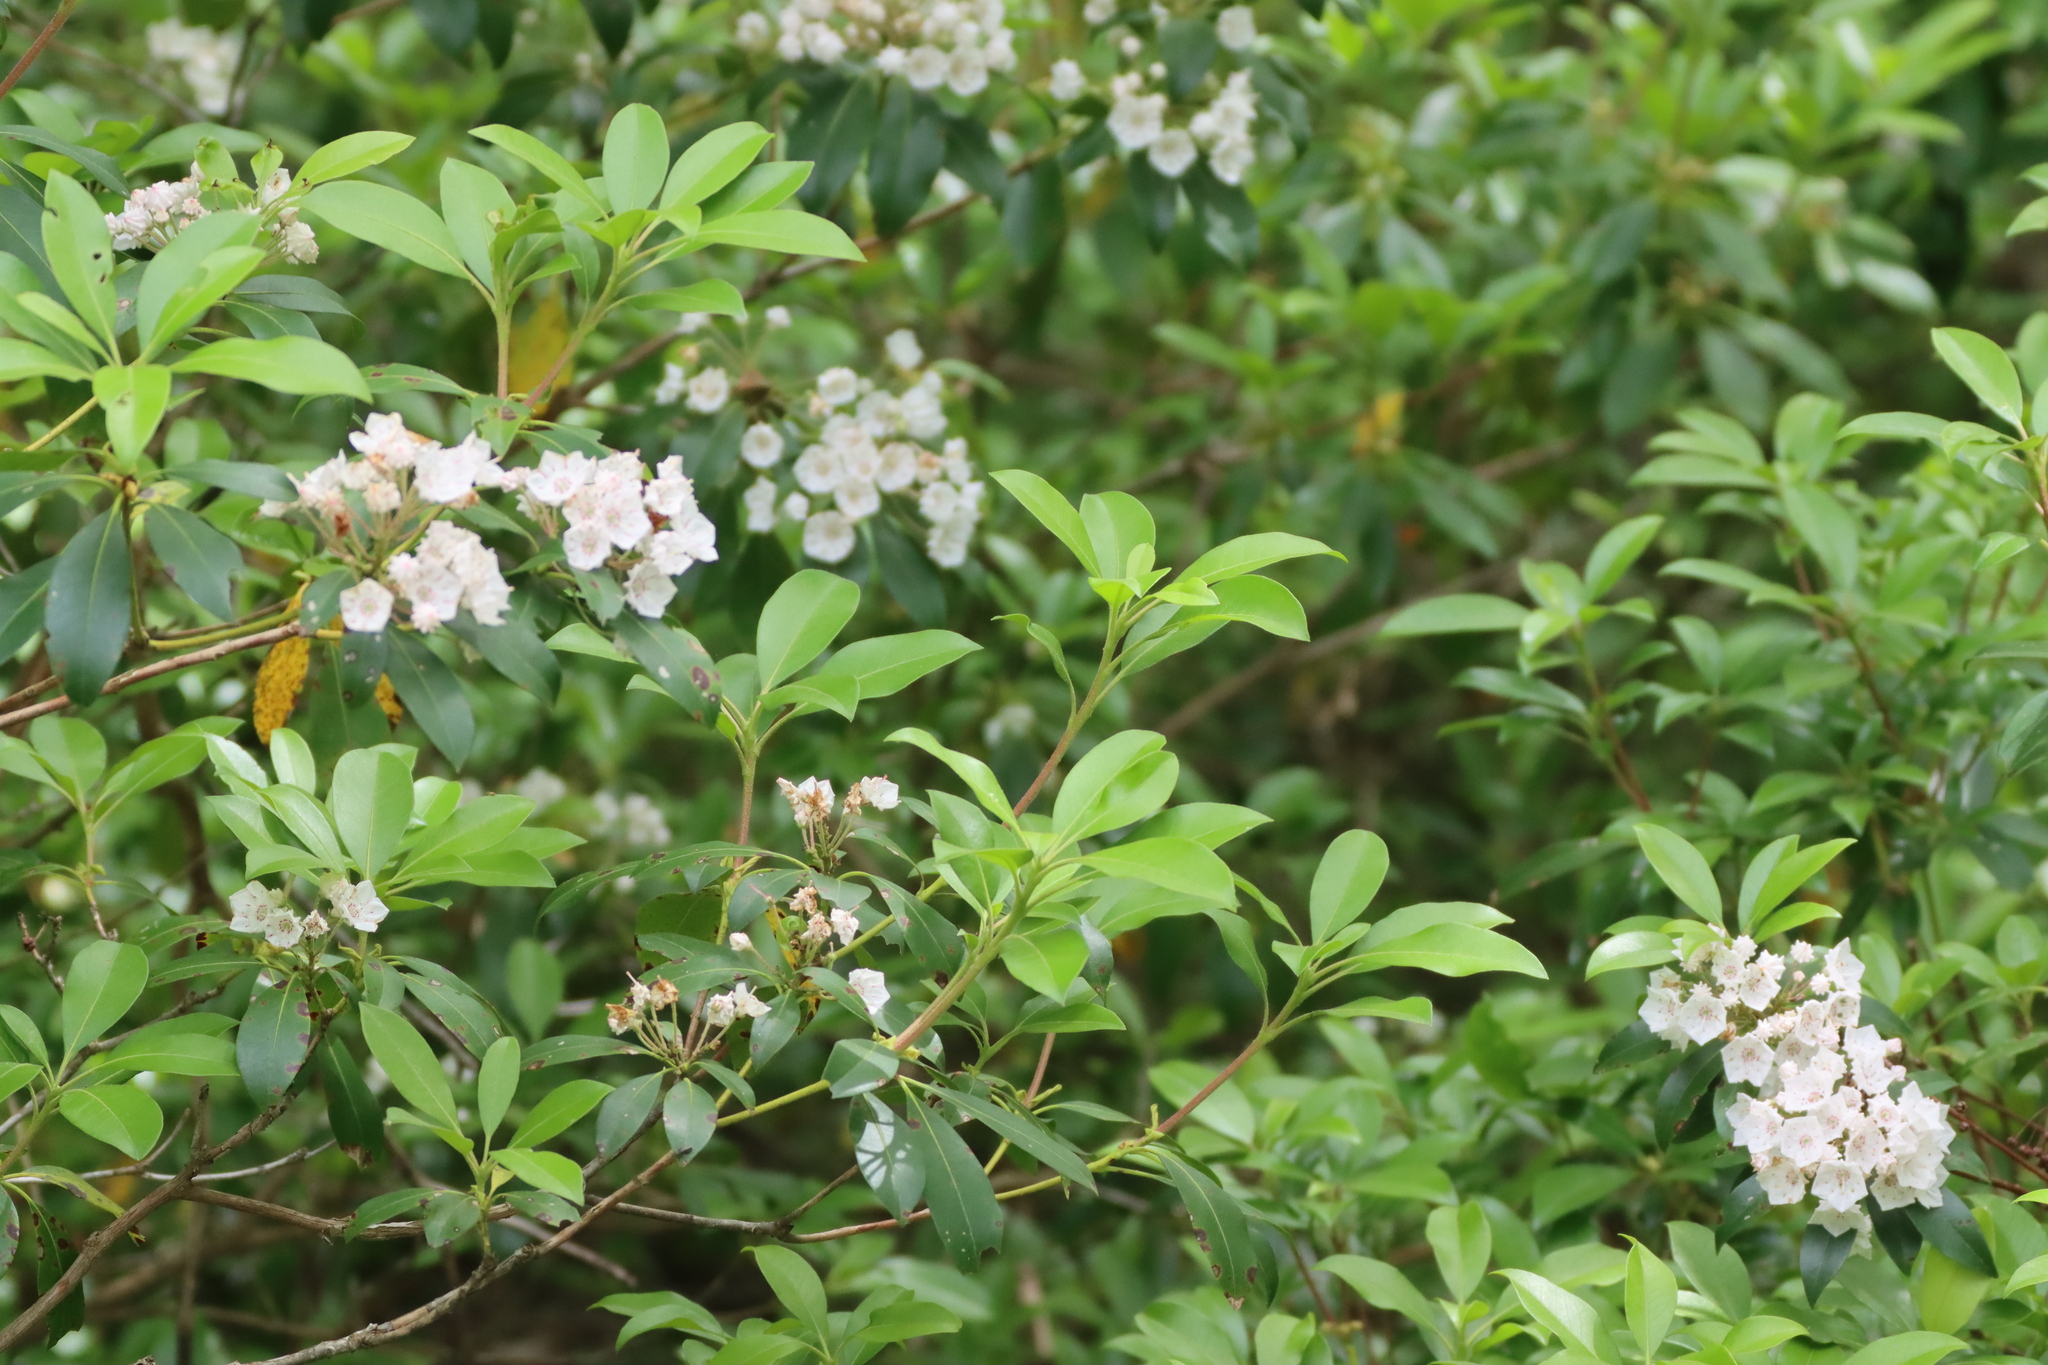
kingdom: Plantae
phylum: Tracheophyta
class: Magnoliopsida
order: Ericales
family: Ericaceae
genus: Kalmia
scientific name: Kalmia latifolia
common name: Mountain-laurel
